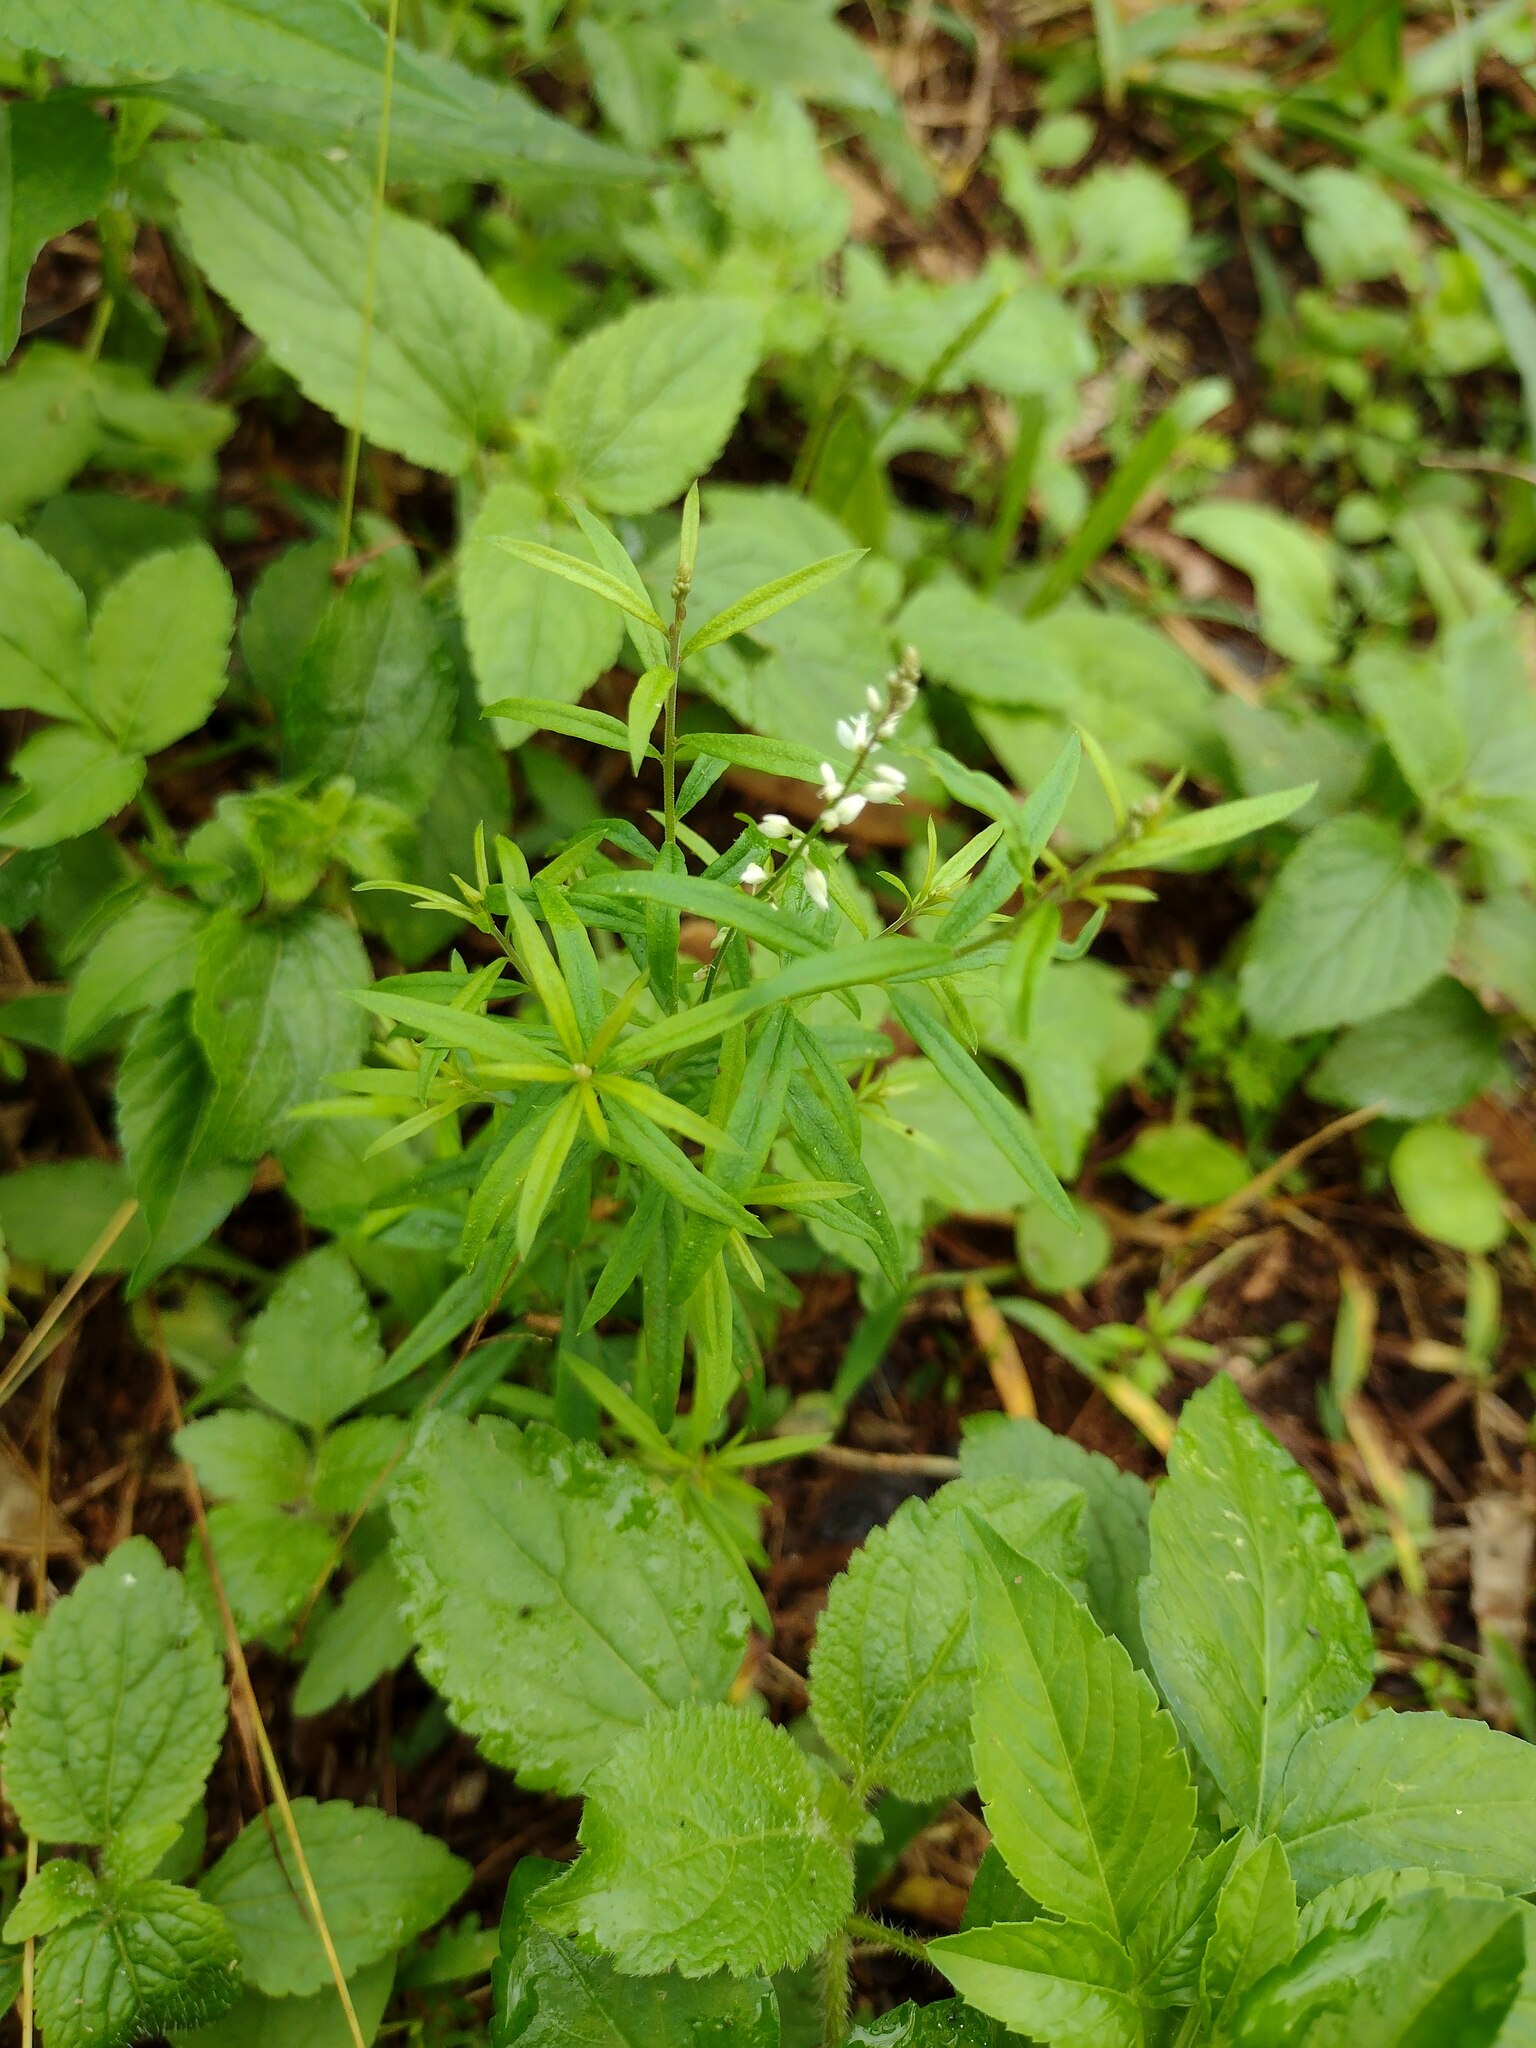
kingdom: Plantae
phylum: Tracheophyta
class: Magnoliopsida
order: Fabales
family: Polygalaceae
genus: Polygala
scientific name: Polygala paniculata
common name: Orosne
